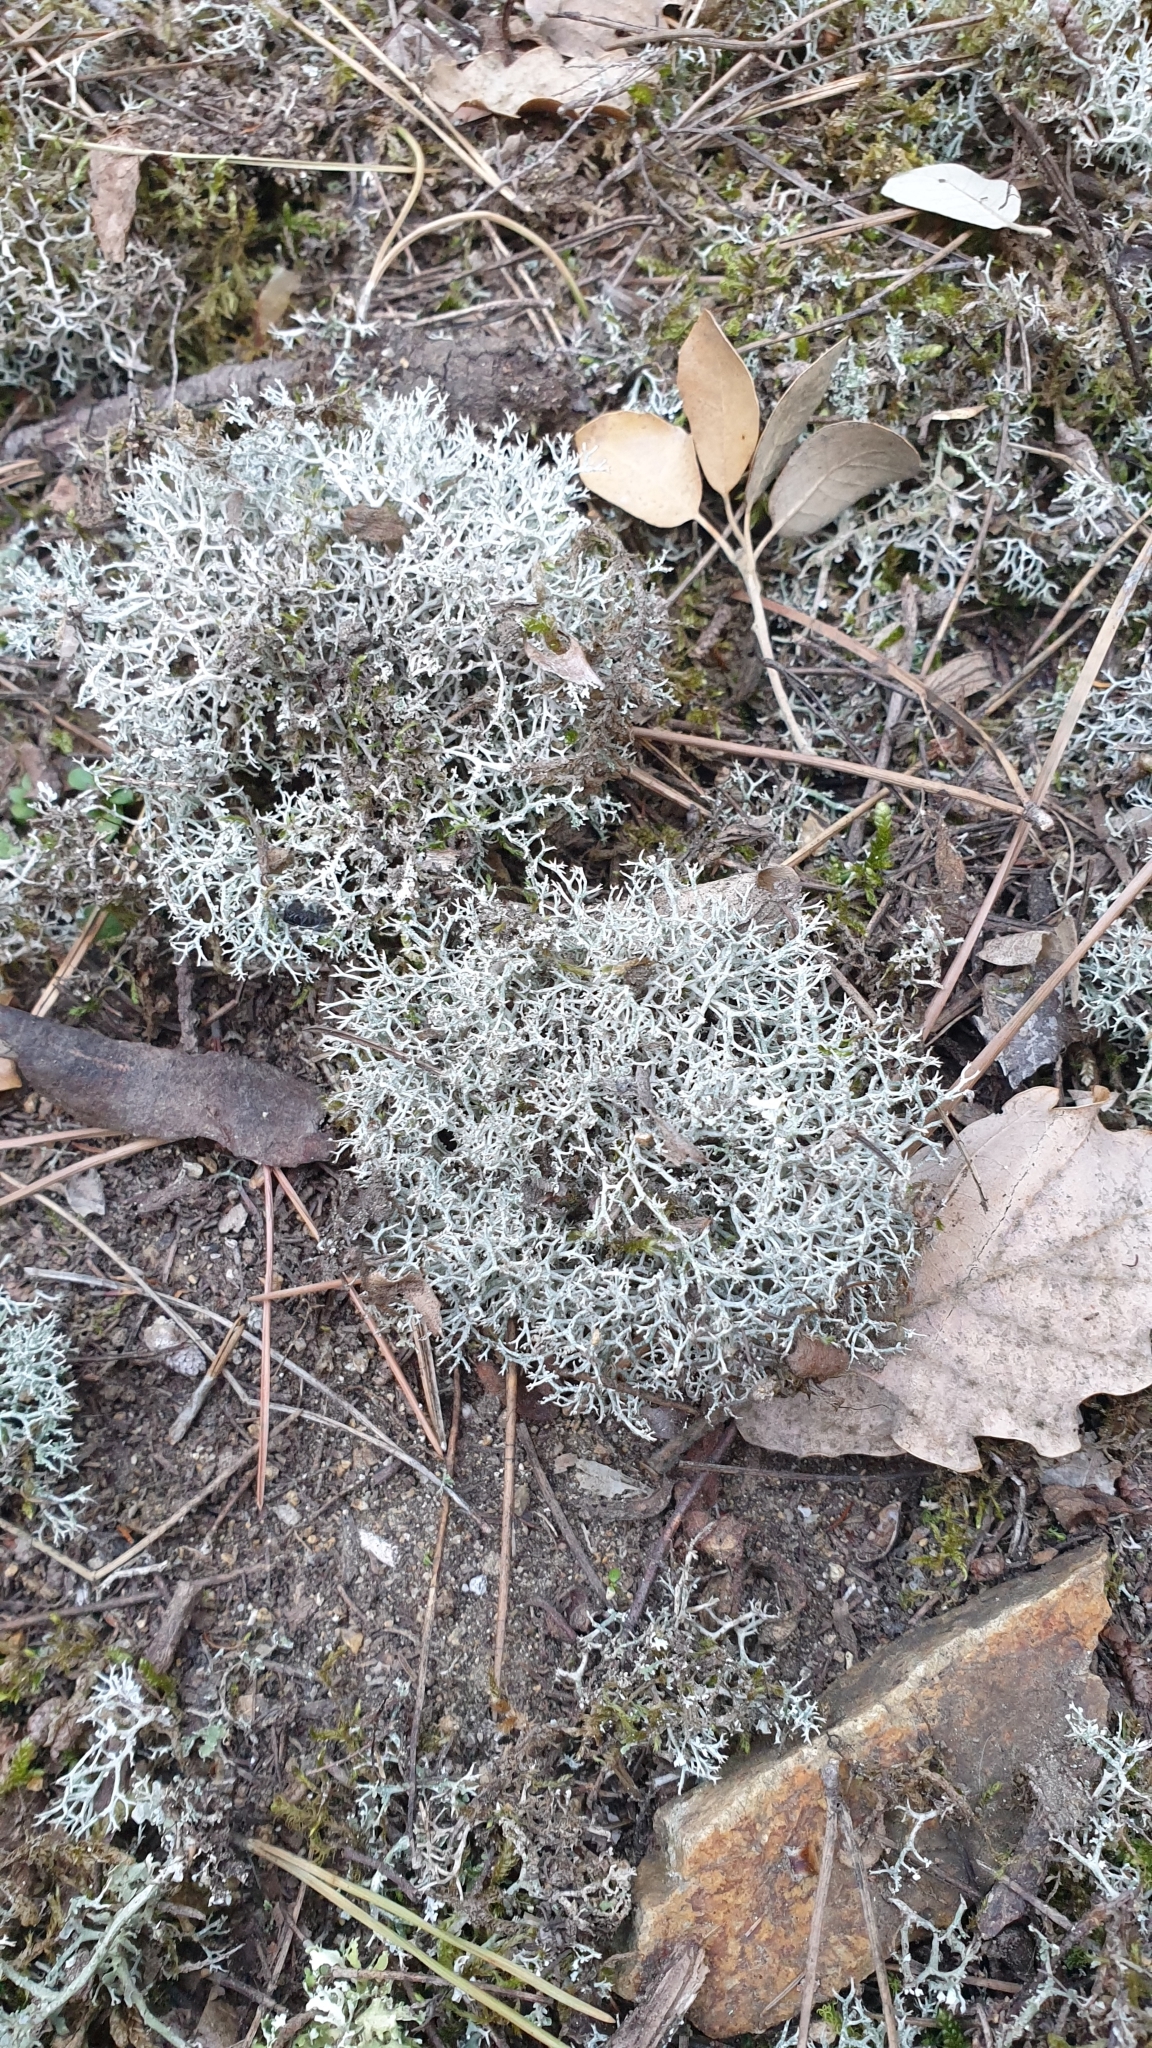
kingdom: Fungi
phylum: Ascomycota
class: Lecanoromycetes
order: Lecanorales
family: Cladoniaceae
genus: Cladonia
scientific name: Cladonia rangiformis
